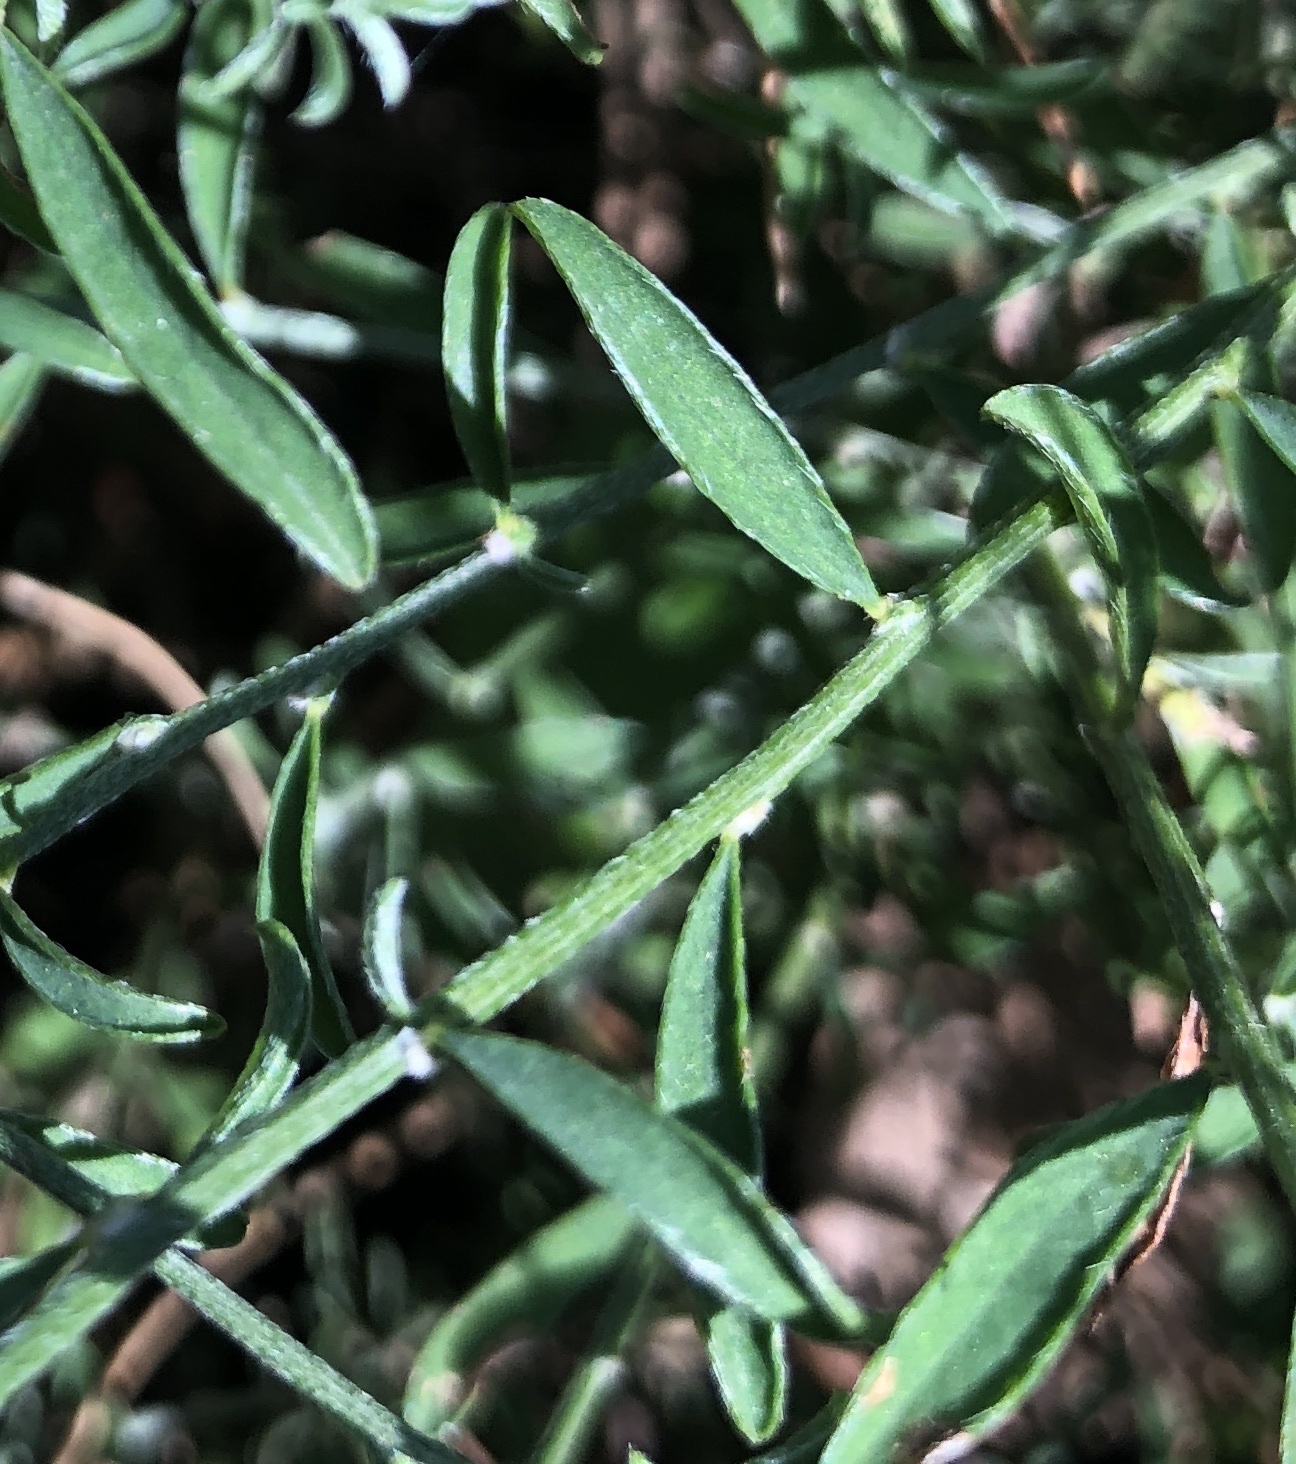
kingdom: Plantae
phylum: Tracheophyta
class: Magnoliopsida
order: Fabales
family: Fabaceae
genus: Genista
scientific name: Genista pilosa
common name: Hairy greenweed
